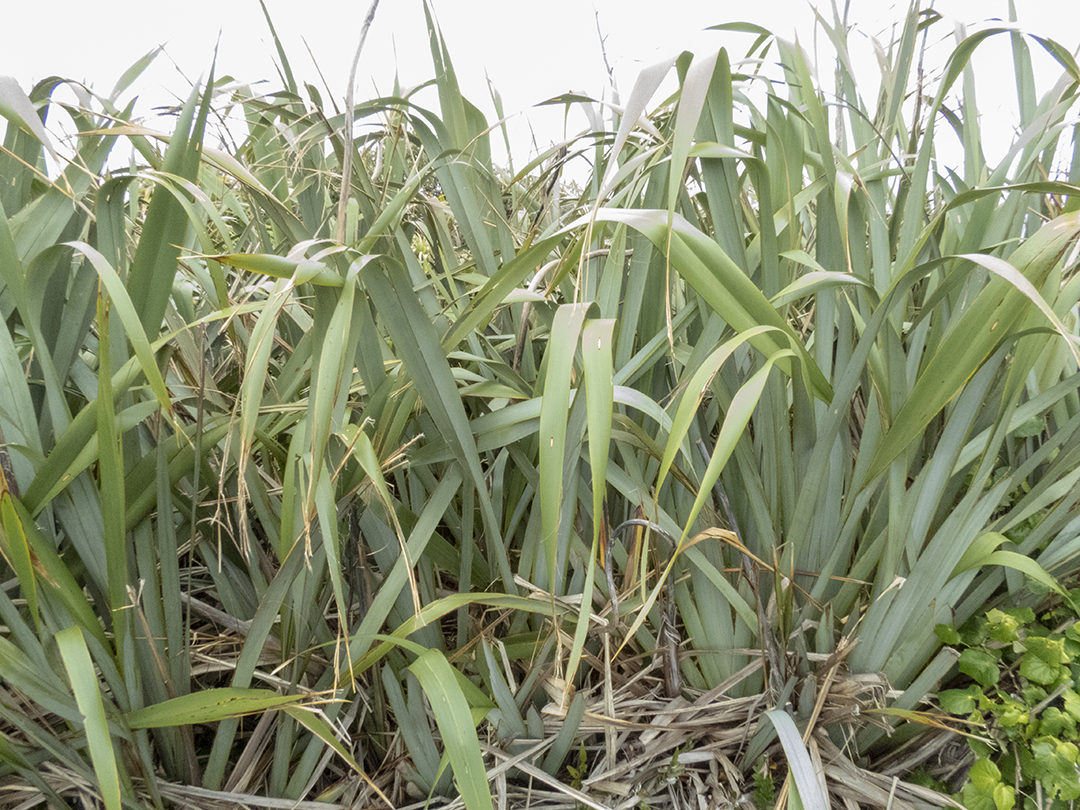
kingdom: Plantae
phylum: Tracheophyta
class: Liliopsida
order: Asparagales
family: Asphodelaceae
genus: Phormium
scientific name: Phormium tenax
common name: New zealand flax
